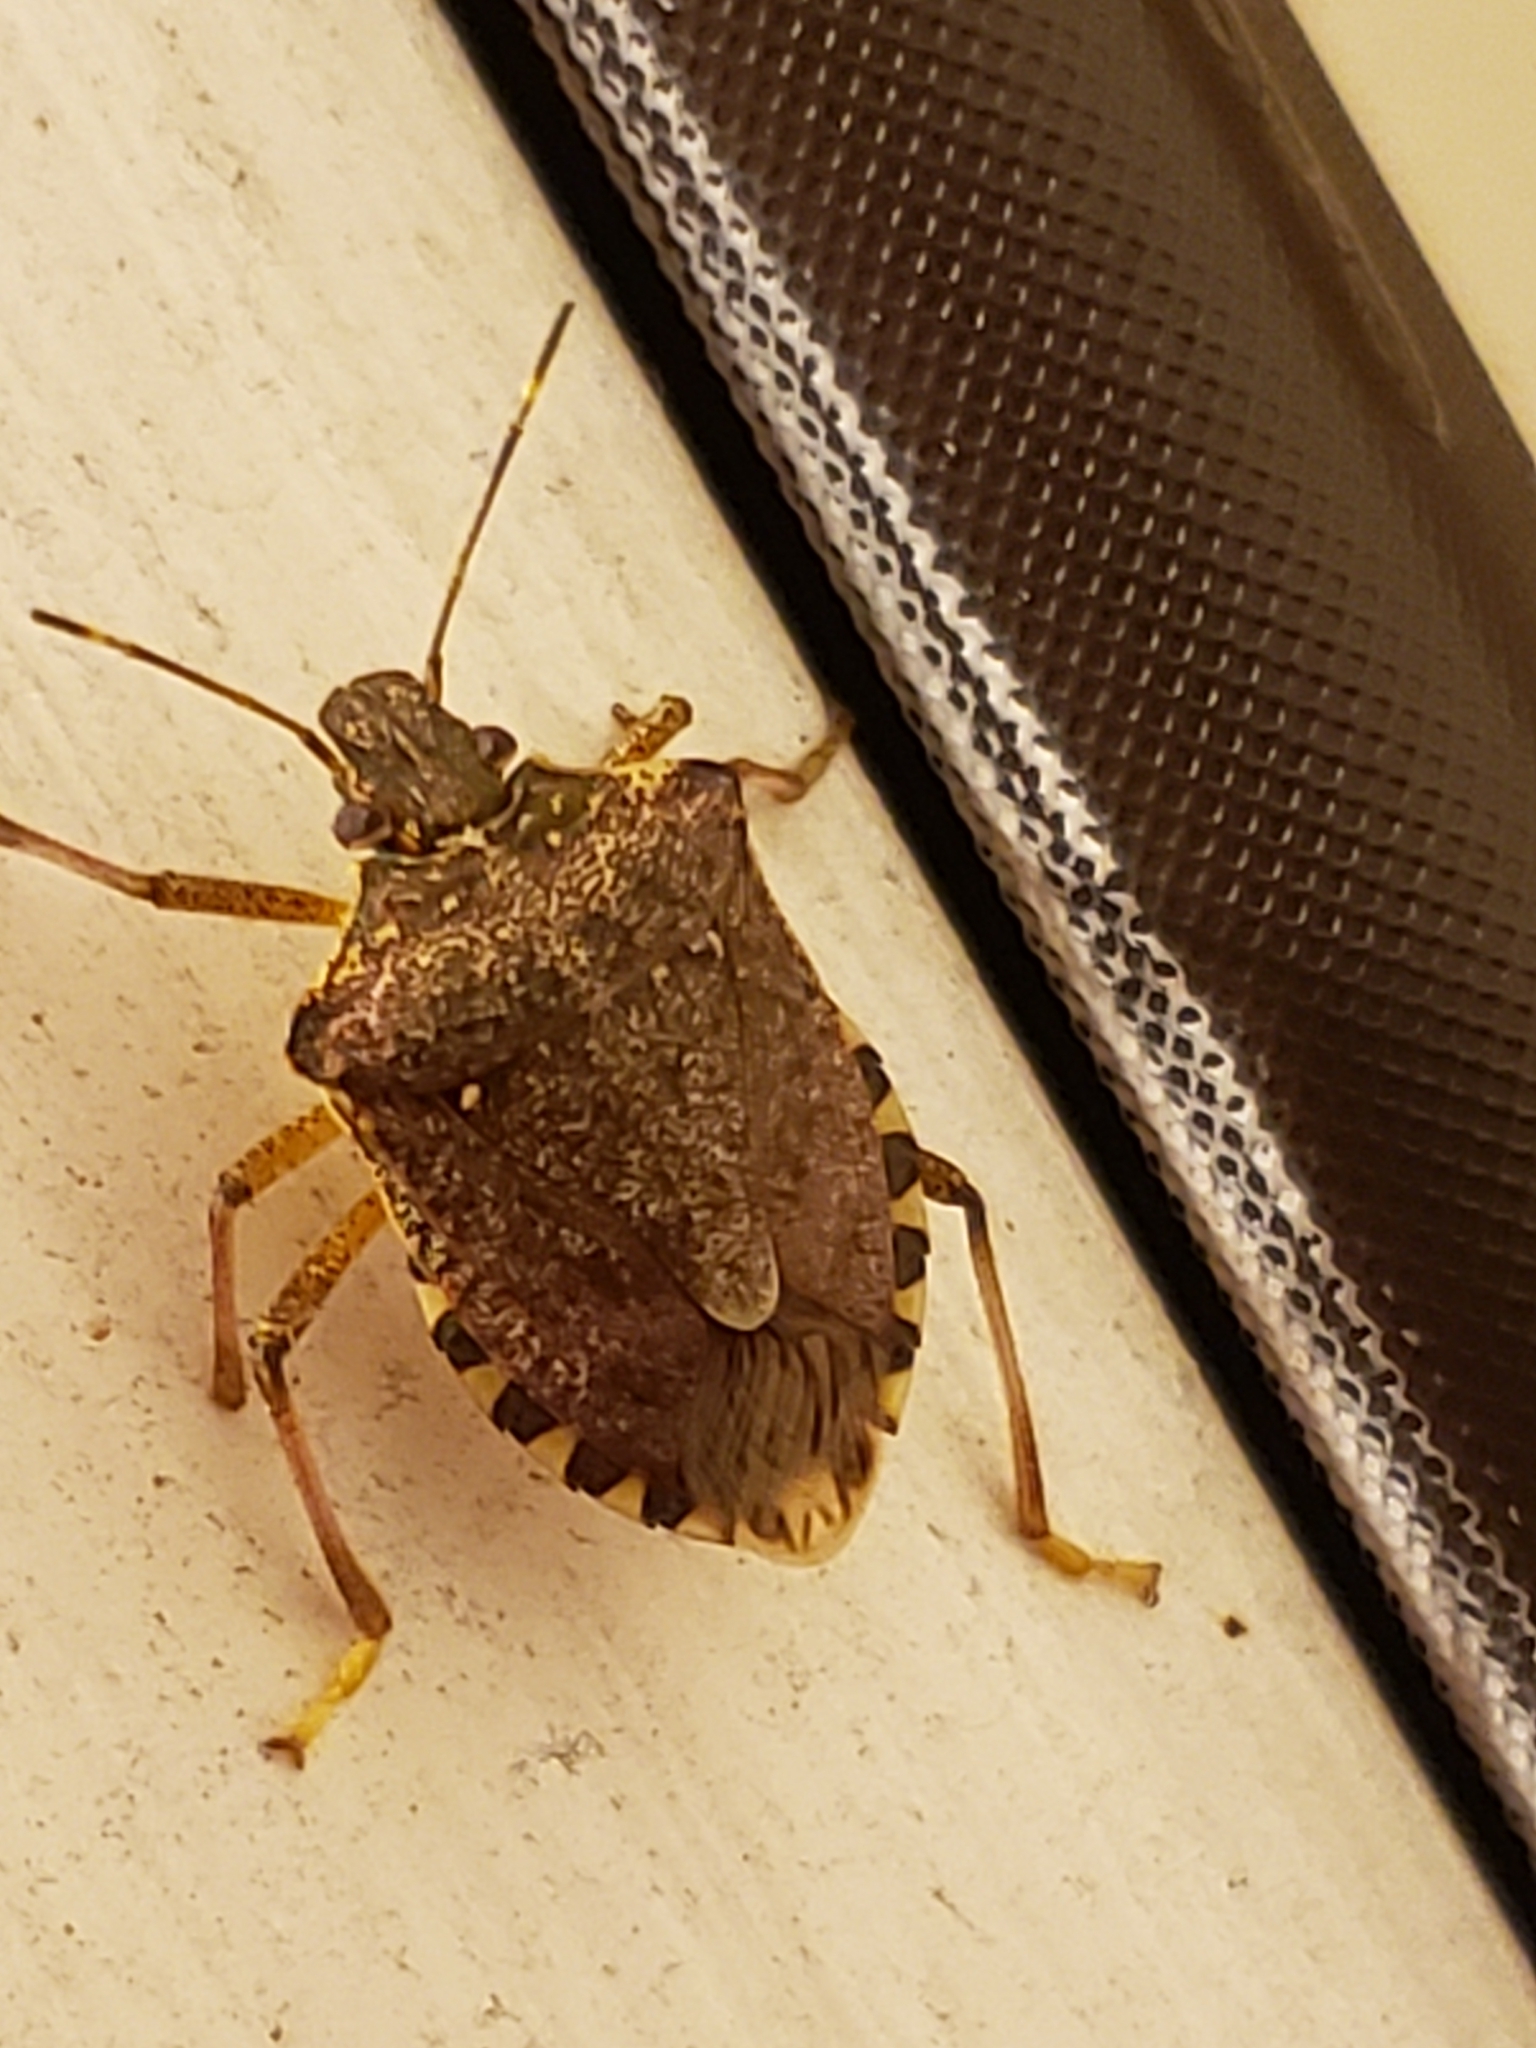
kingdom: Animalia
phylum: Arthropoda
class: Insecta
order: Hemiptera
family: Pentatomidae
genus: Halyomorpha
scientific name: Halyomorpha halys
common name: Brown marmorated stink bug
